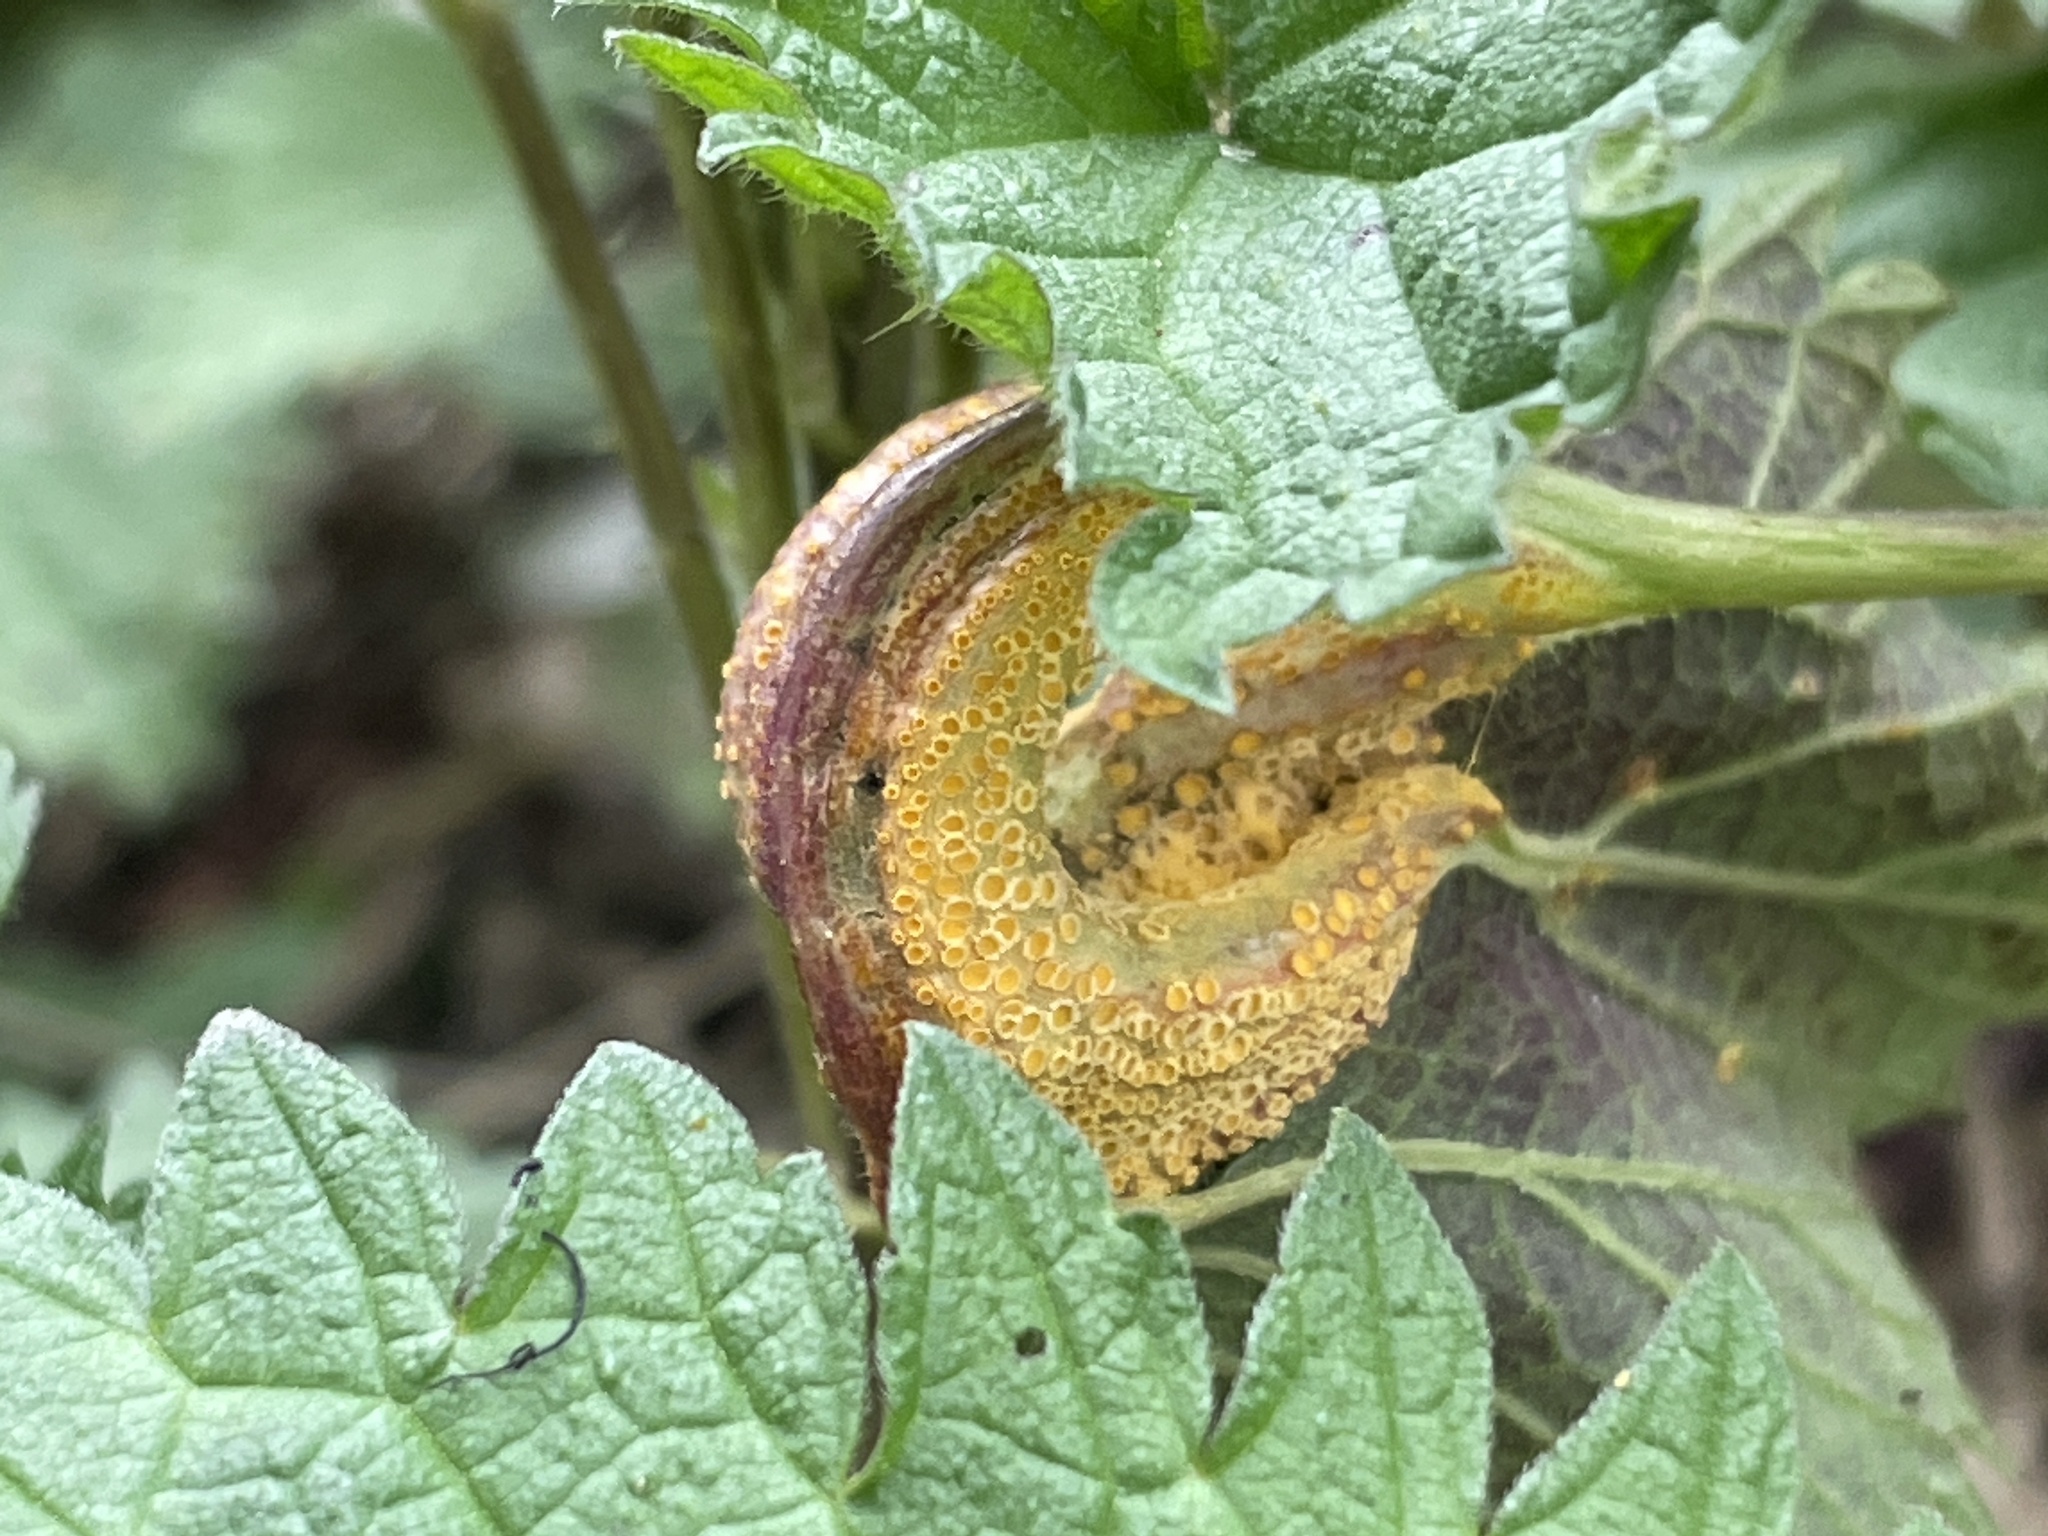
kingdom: Fungi
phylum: Basidiomycota
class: Pucciniomycetes
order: Pucciniales
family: Pucciniaceae
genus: Puccinia
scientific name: Puccinia urticata
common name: Nettle clustercup rust fungus
